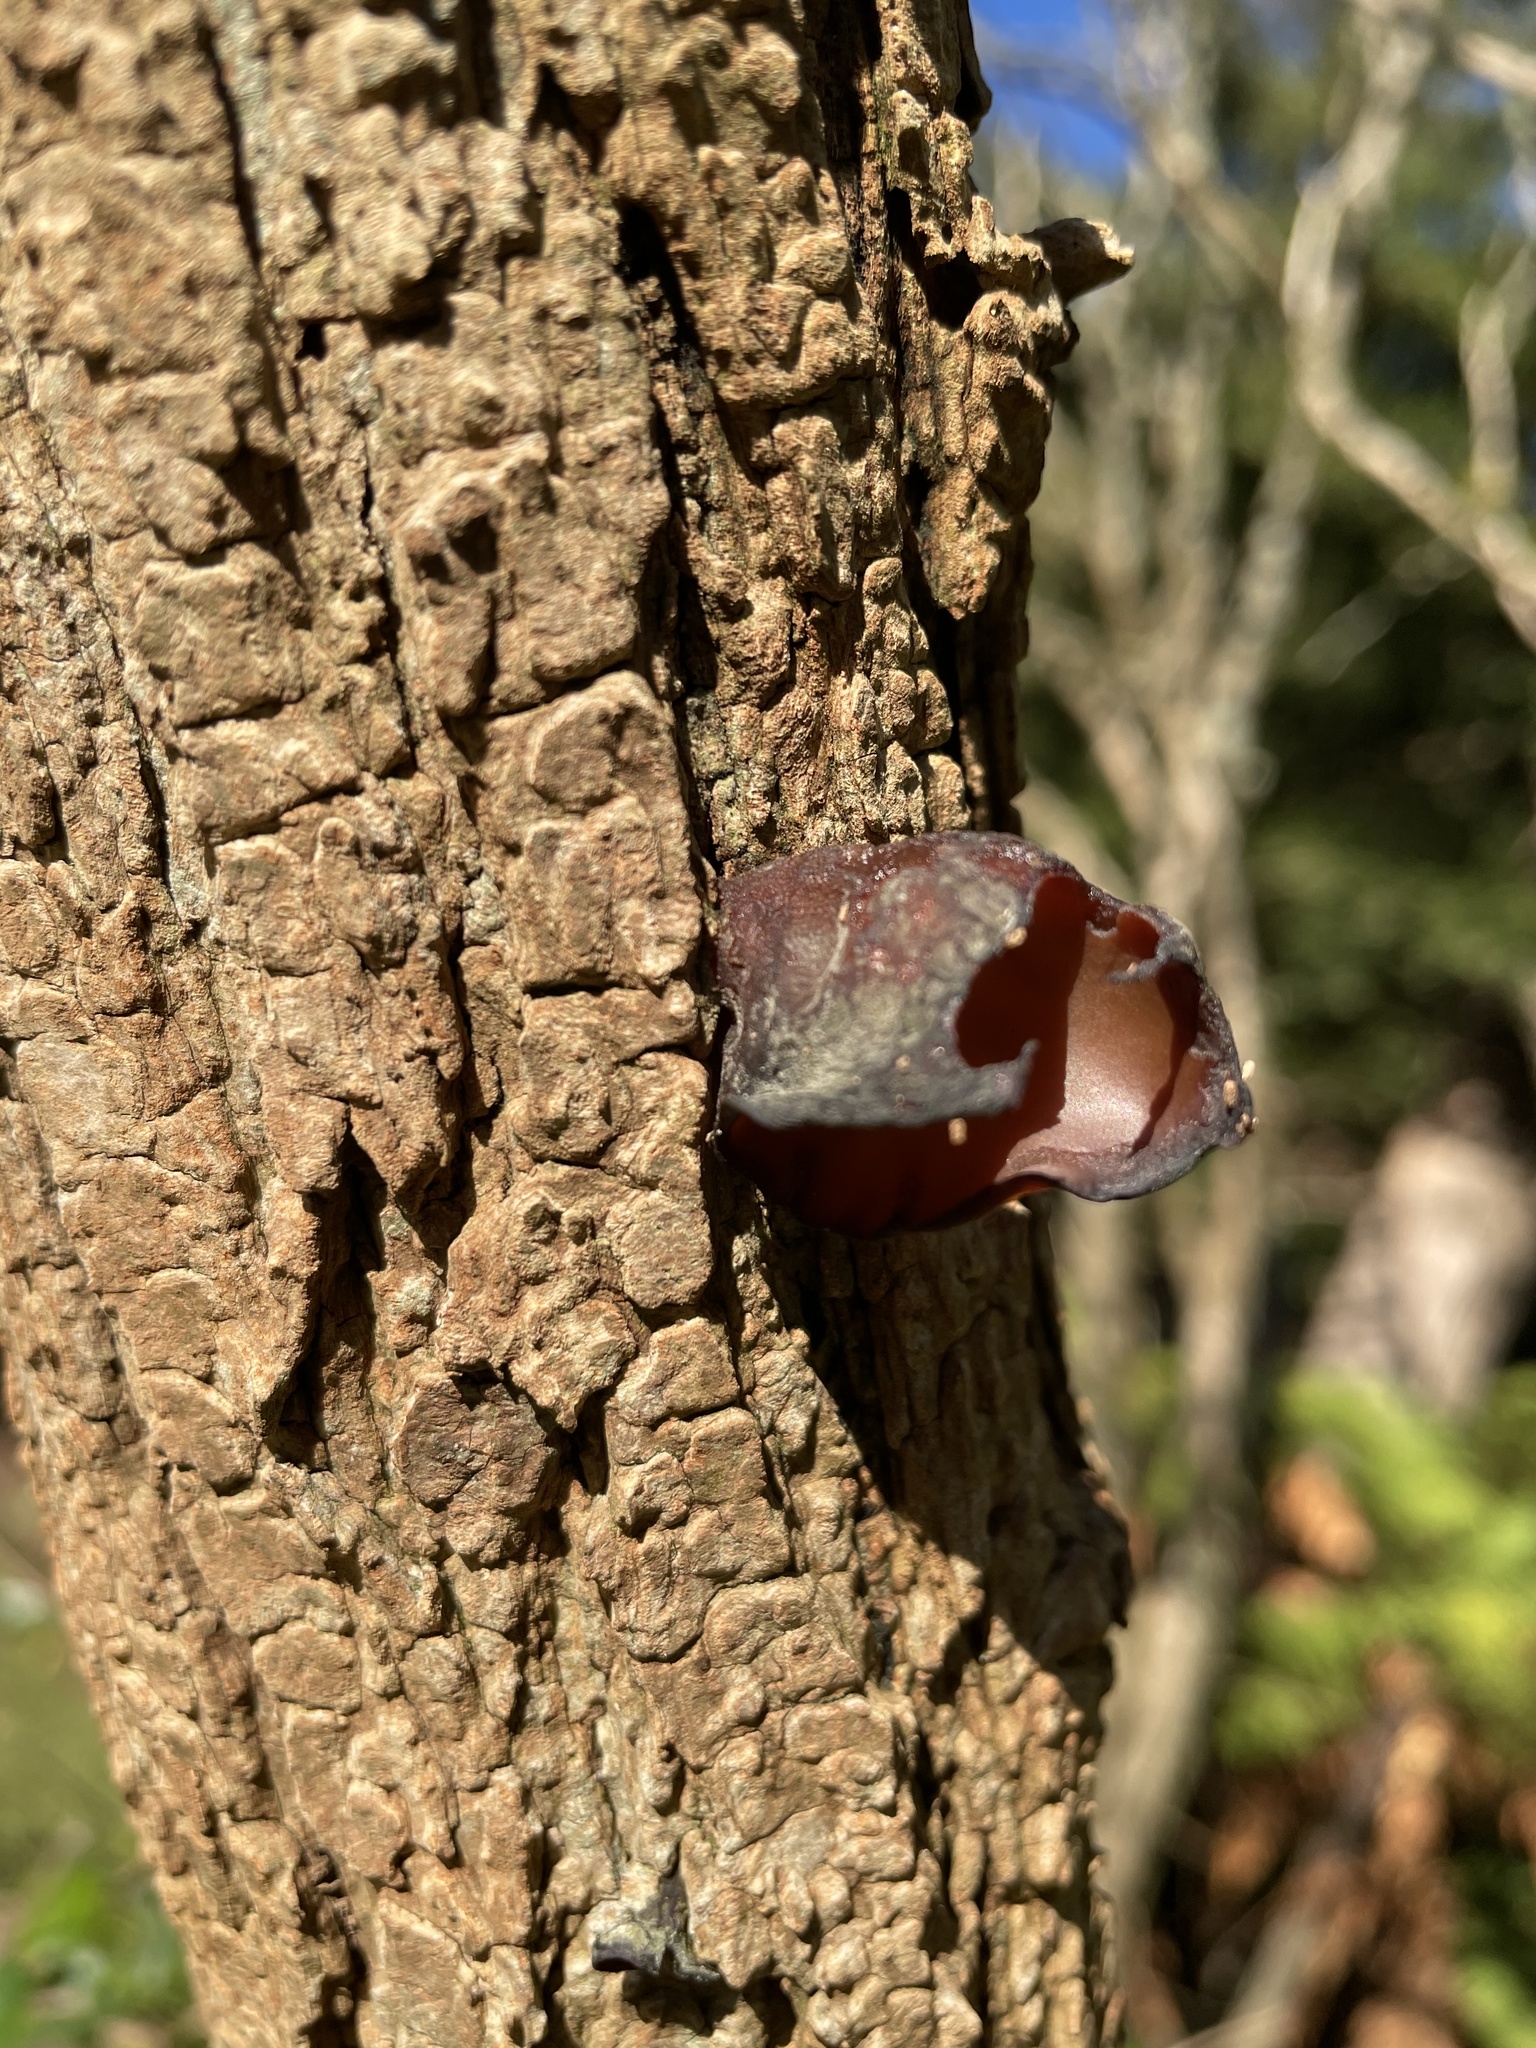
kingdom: Fungi
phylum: Basidiomycota
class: Agaricomycetes
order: Auriculariales
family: Auriculariaceae
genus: Auricularia
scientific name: Auricularia cornea
